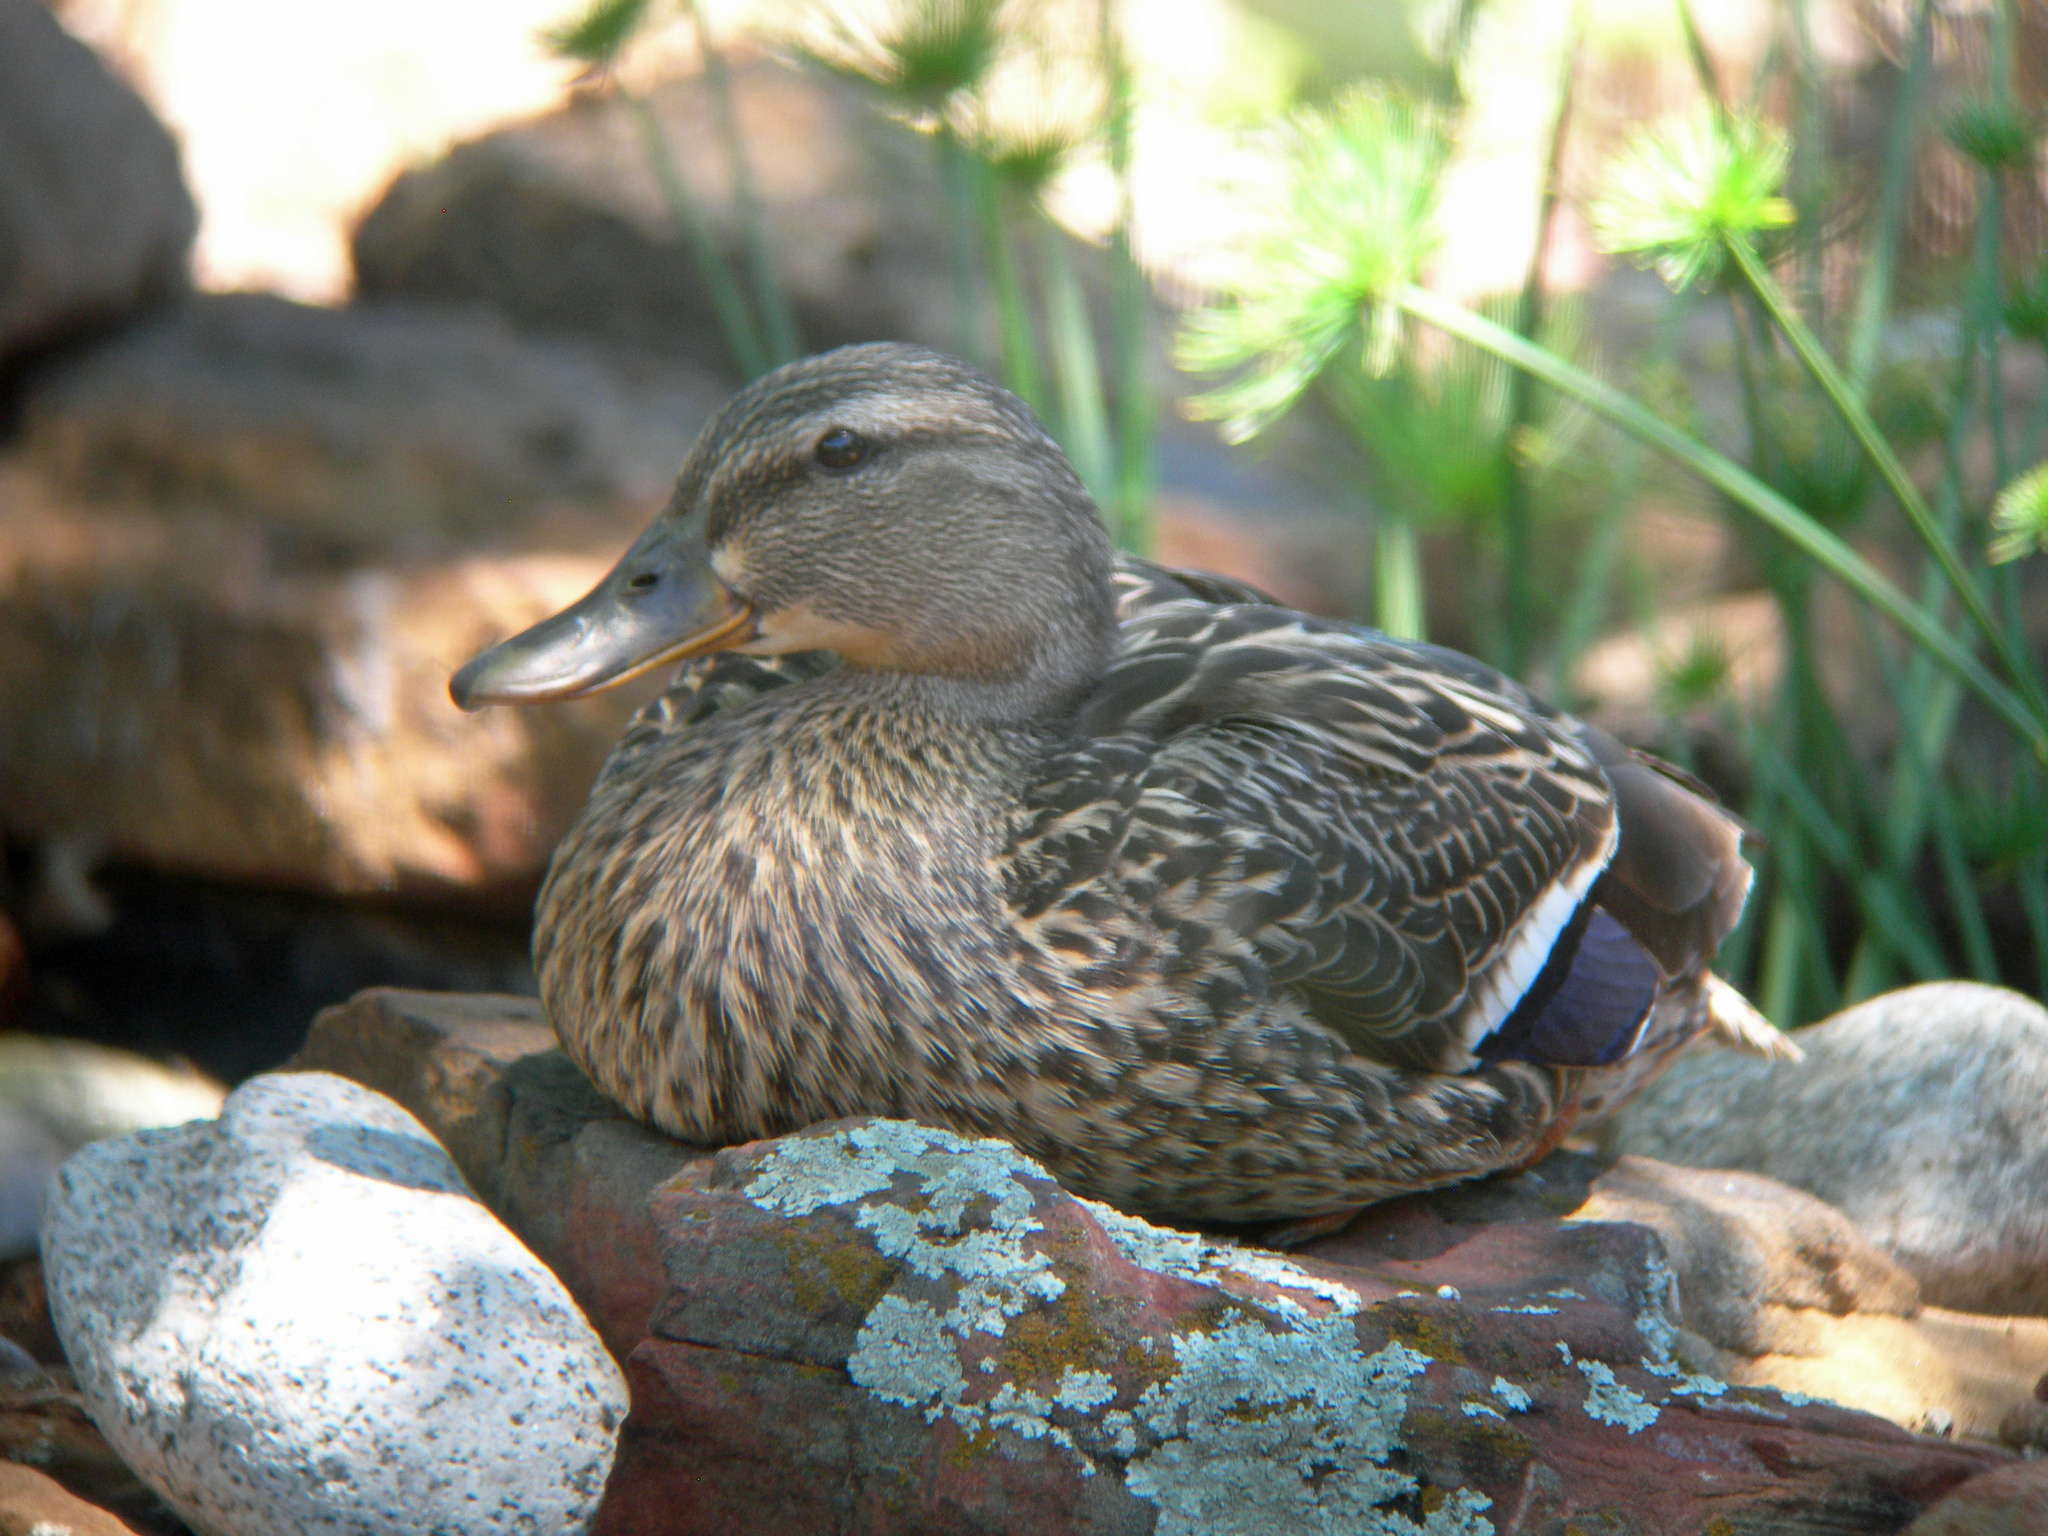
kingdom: Animalia
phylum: Chordata
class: Aves
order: Anseriformes
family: Anatidae
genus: Anas
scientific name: Anas platyrhynchos
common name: Mallard
